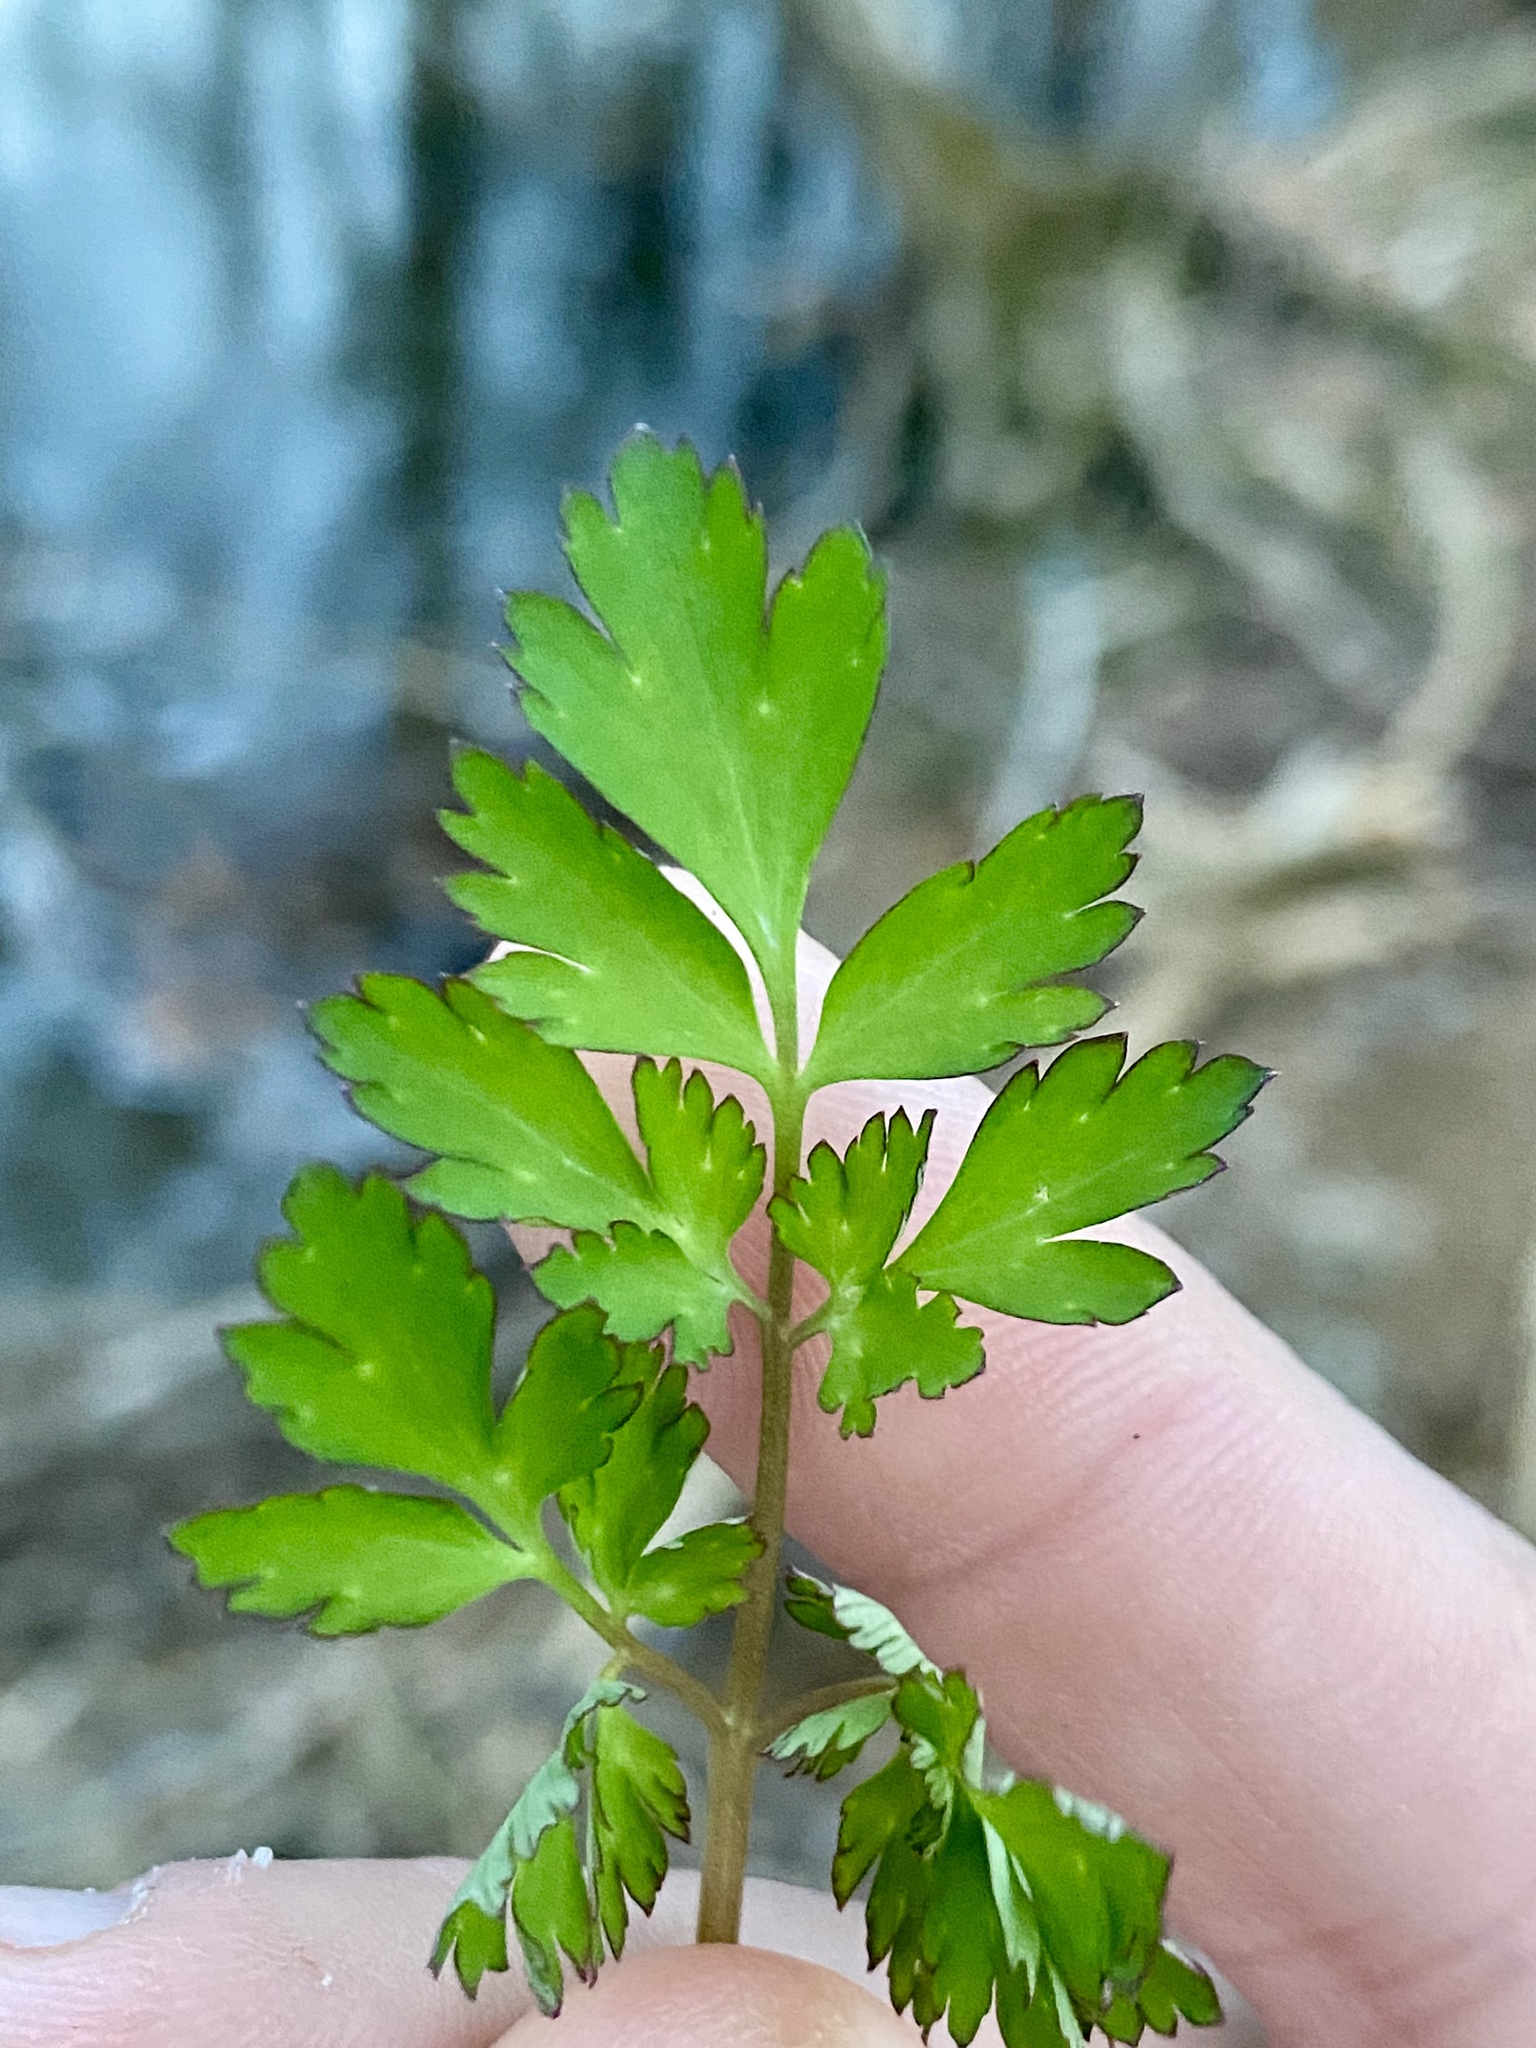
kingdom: Plantae
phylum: Tracheophyta
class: Magnoliopsida
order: Ranunculales
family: Papaveraceae
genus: Corydalis
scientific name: Corydalis incisa
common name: Incised fumewort
